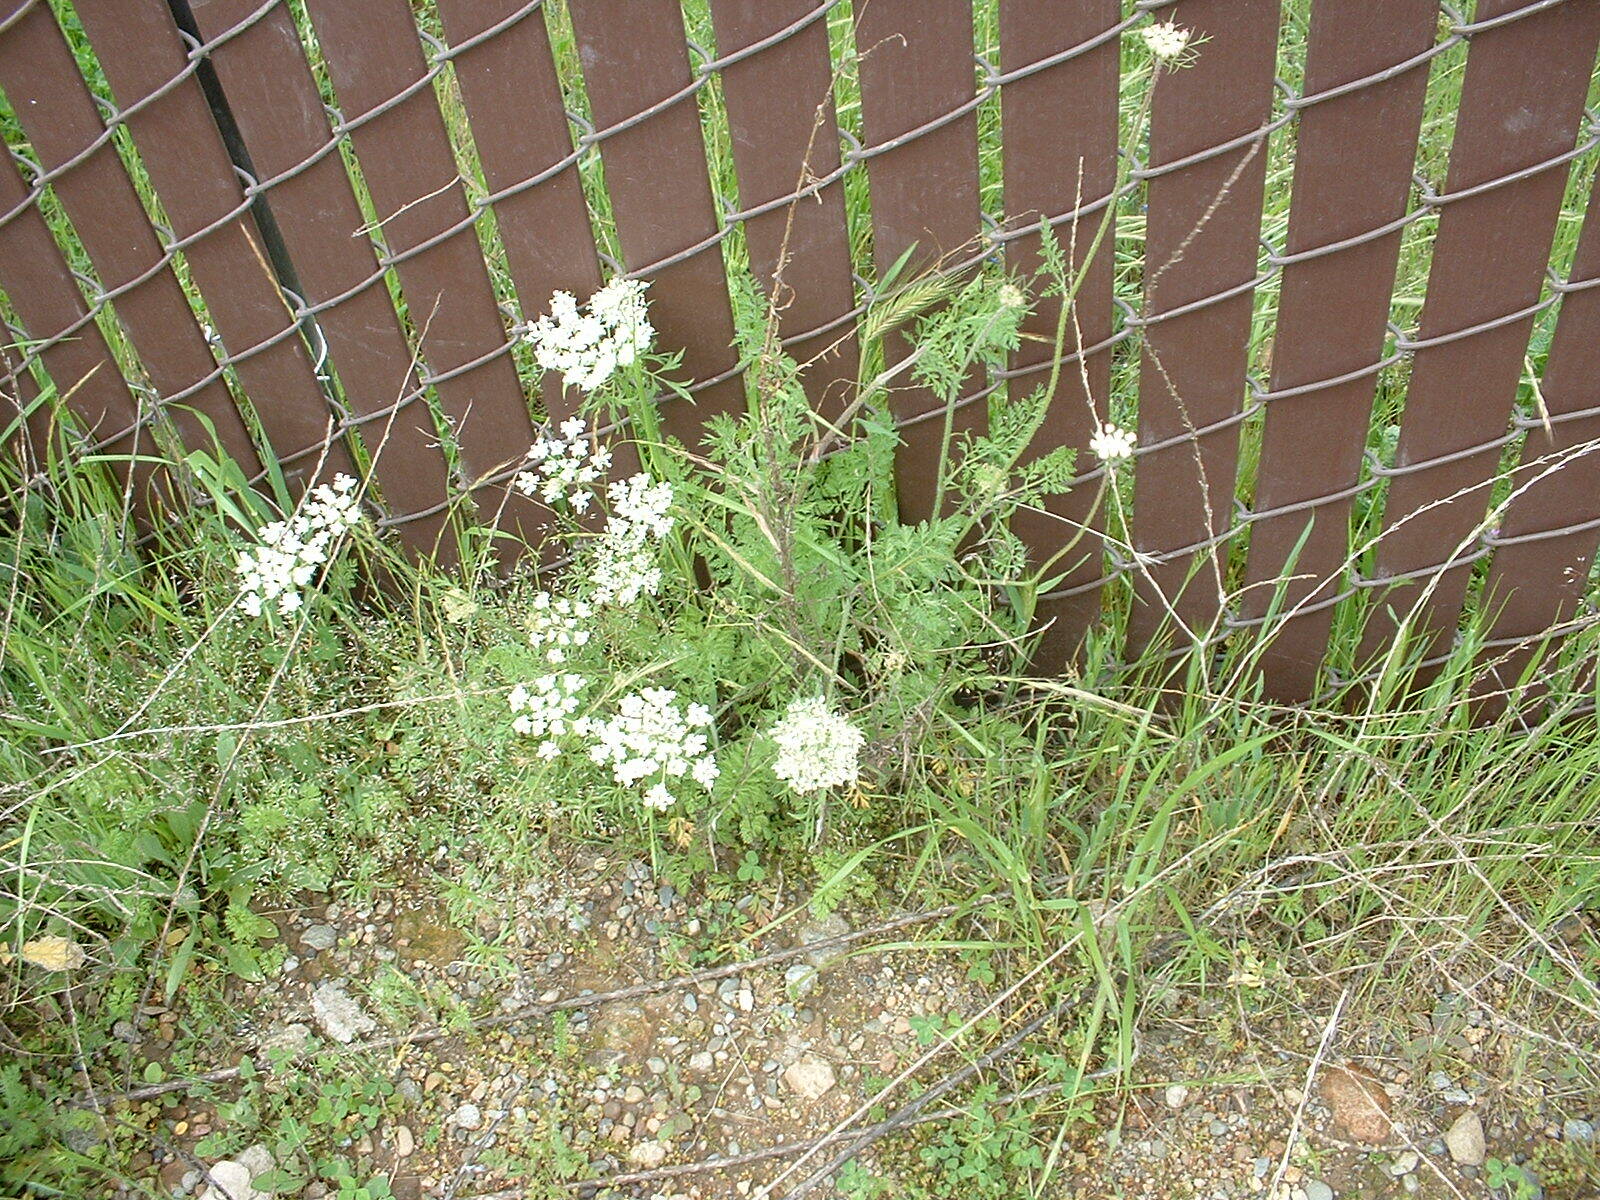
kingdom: Plantae
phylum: Tracheophyta
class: Magnoliopsida
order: Apiales
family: Apiaceae
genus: Daucus
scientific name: Daucus carota
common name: Wild carrot
